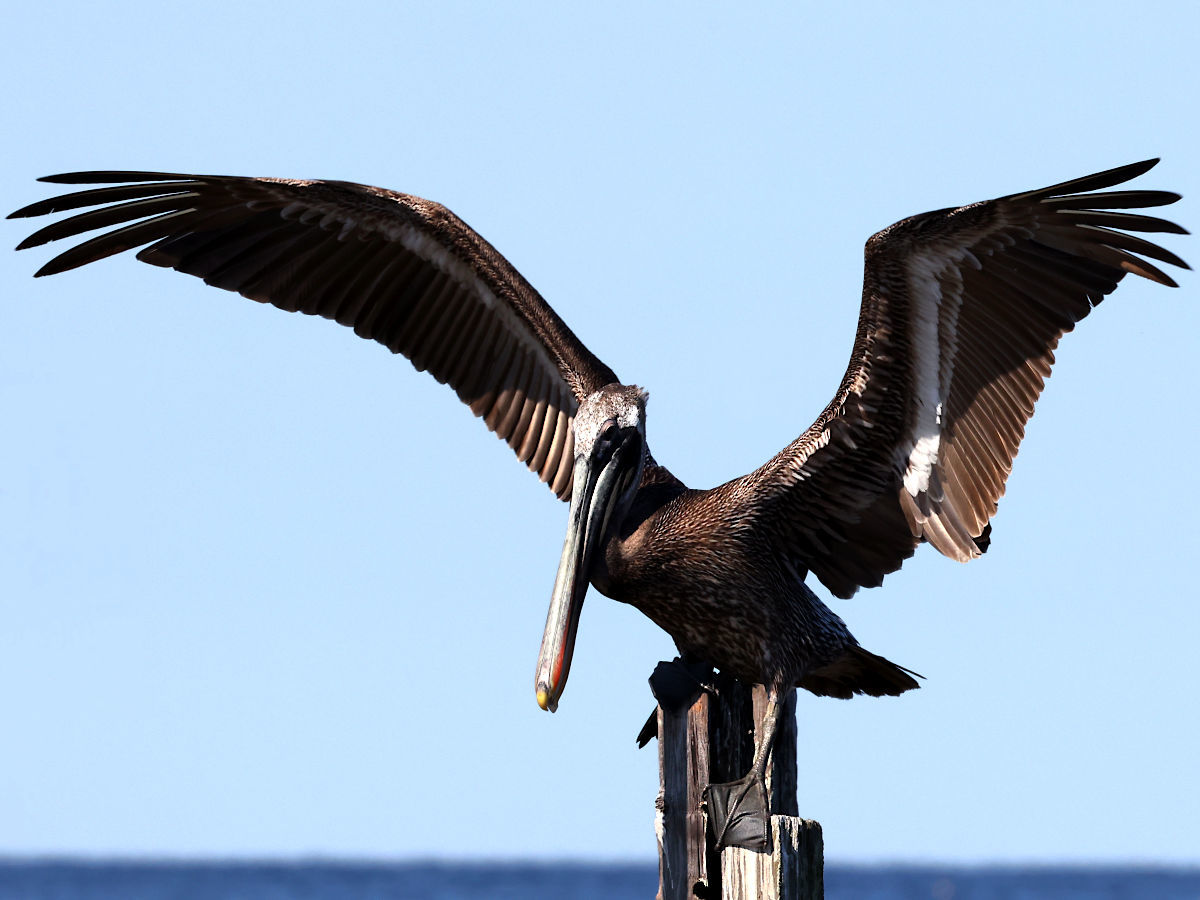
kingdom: Animalia
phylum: Chordata
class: Aves
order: Pelecaniformes
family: Pelecanidae
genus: Pelecanus
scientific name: Pelecanus occidentalis
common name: Brown pelican
